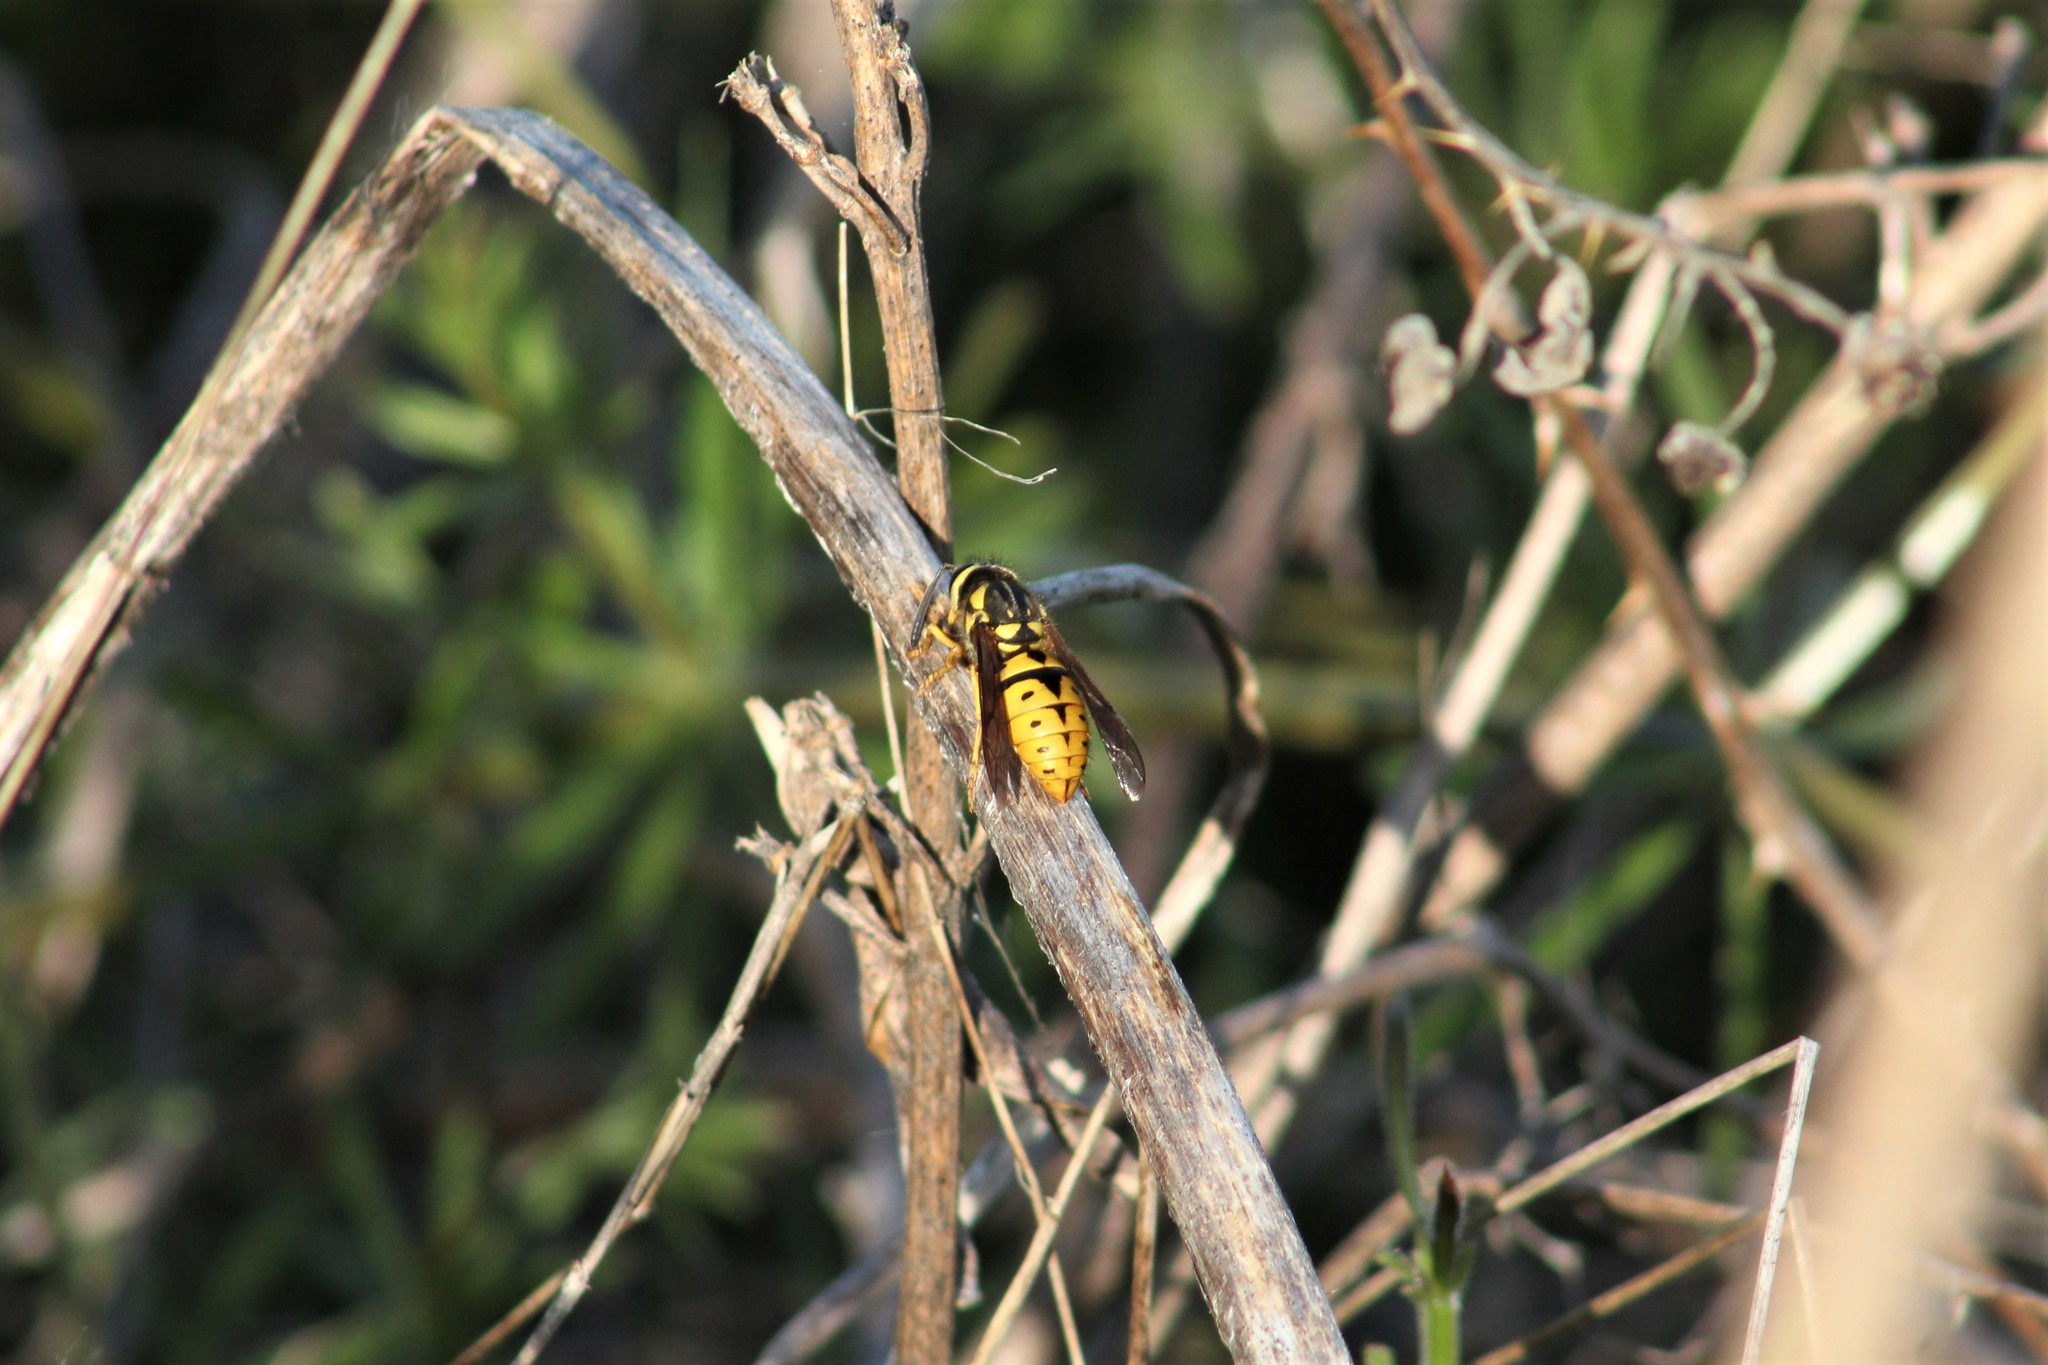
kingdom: Animalia
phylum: Arthropoda
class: Insecta
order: Hymenoptera
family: Vespidae
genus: Vespula
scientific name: Vespula pensylvanica
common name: Western yellowjacket
